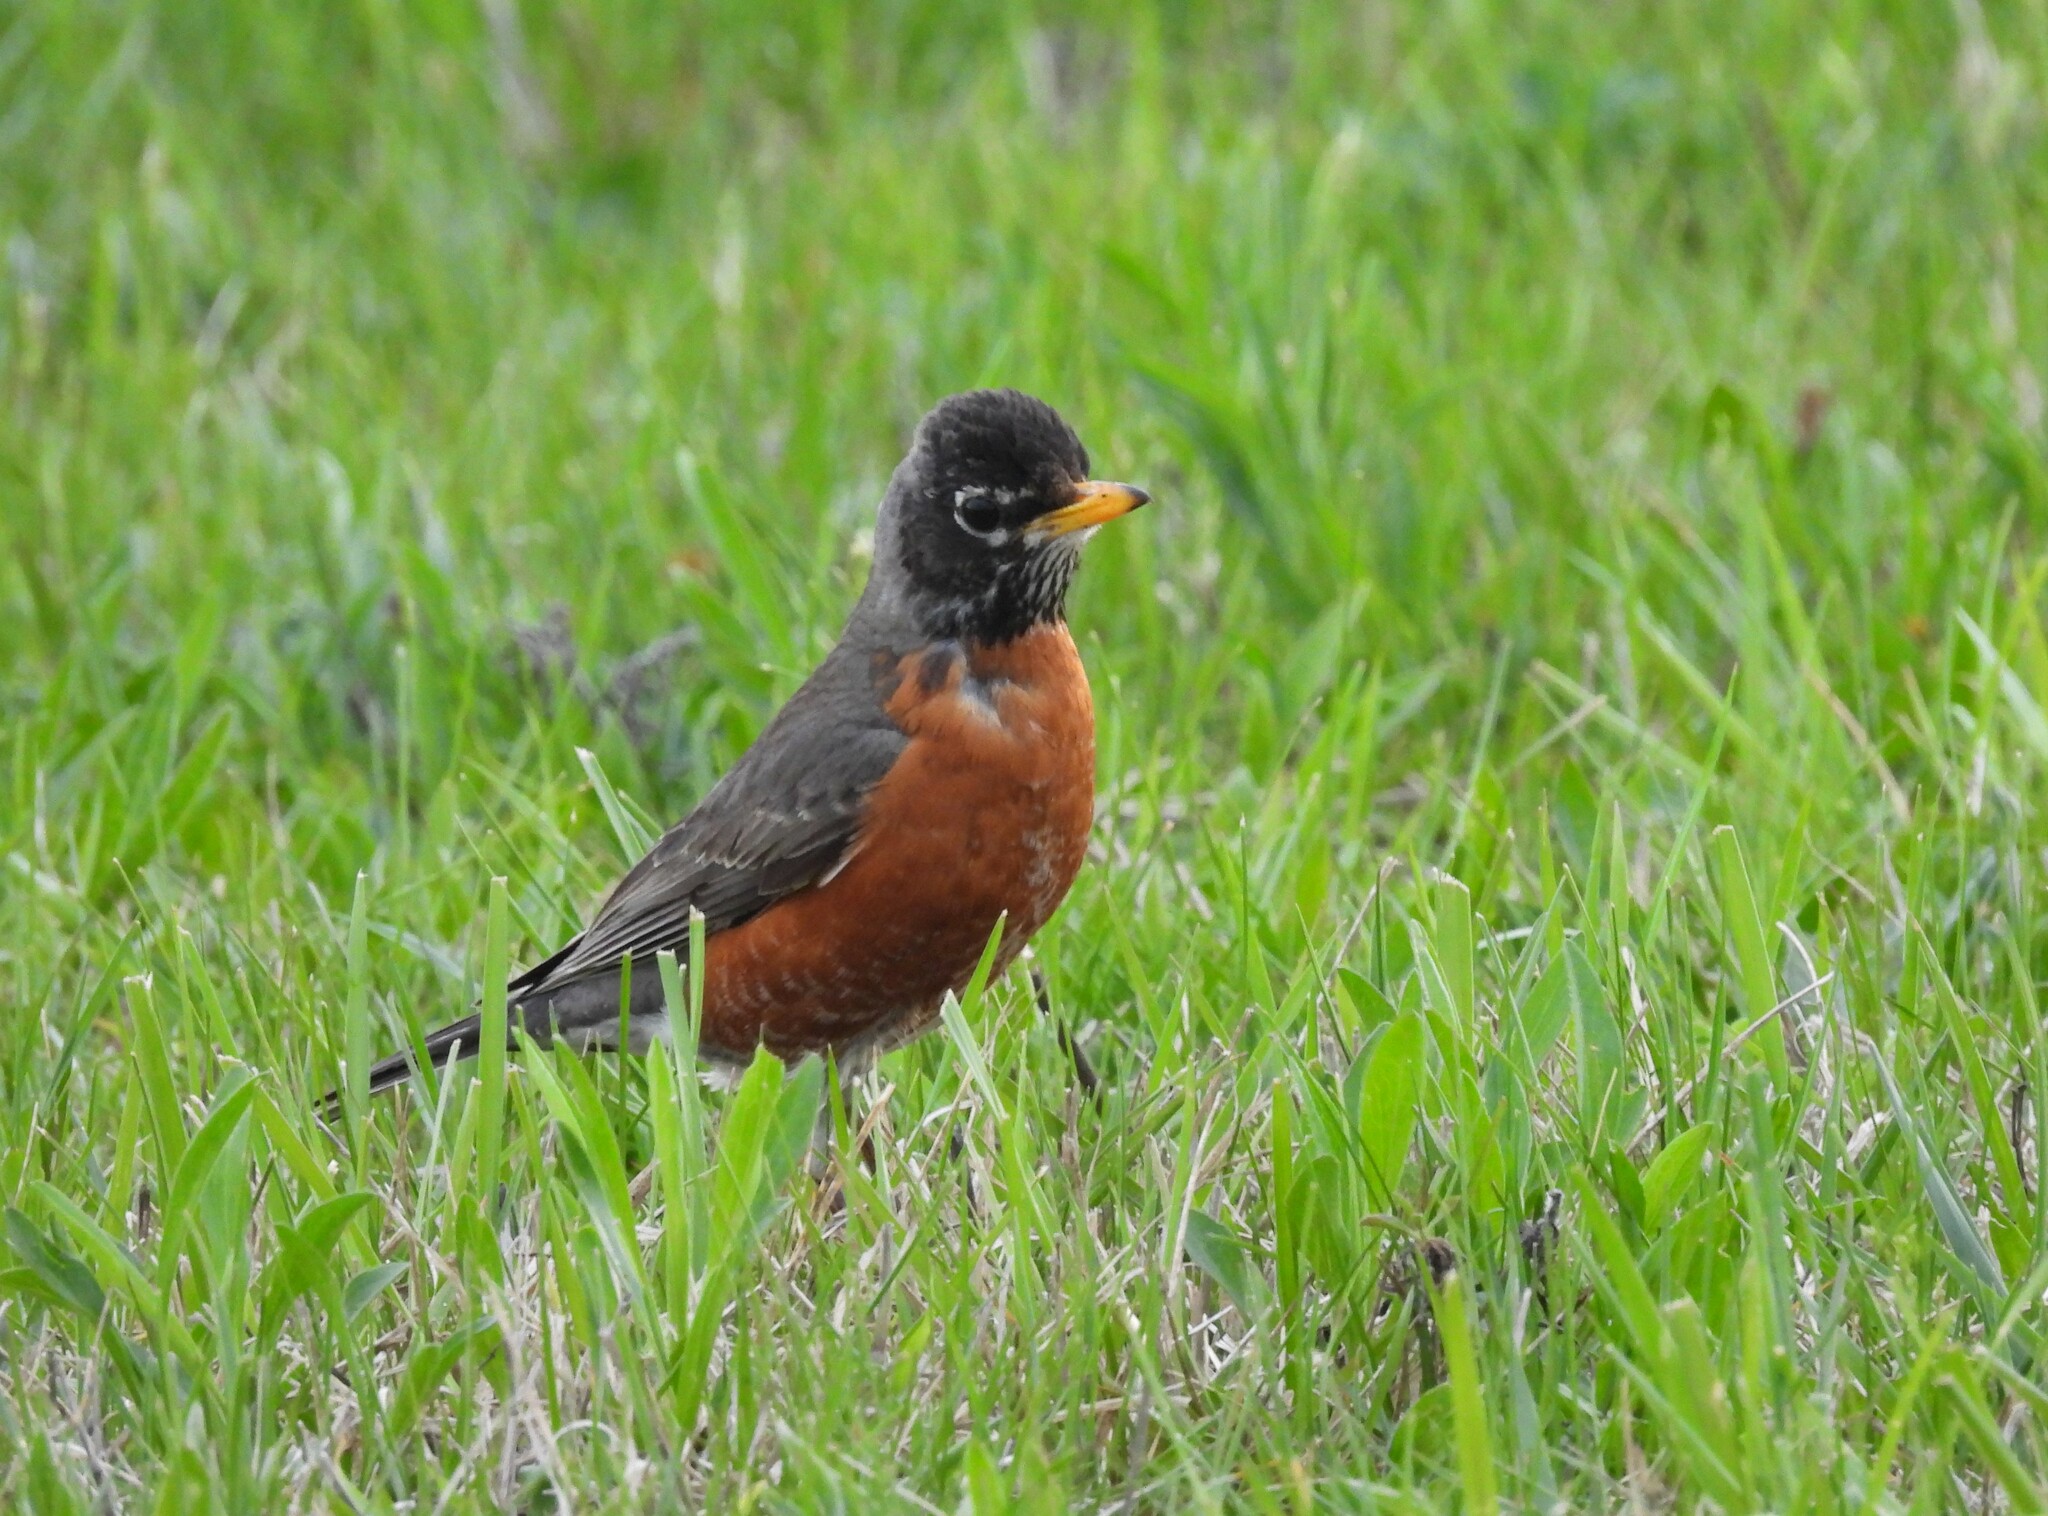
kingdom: Animalia
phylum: Chordata
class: Aves
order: Passeriformes
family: Turdidae
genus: Turdus
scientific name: Turdus migratorius
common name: American robin
